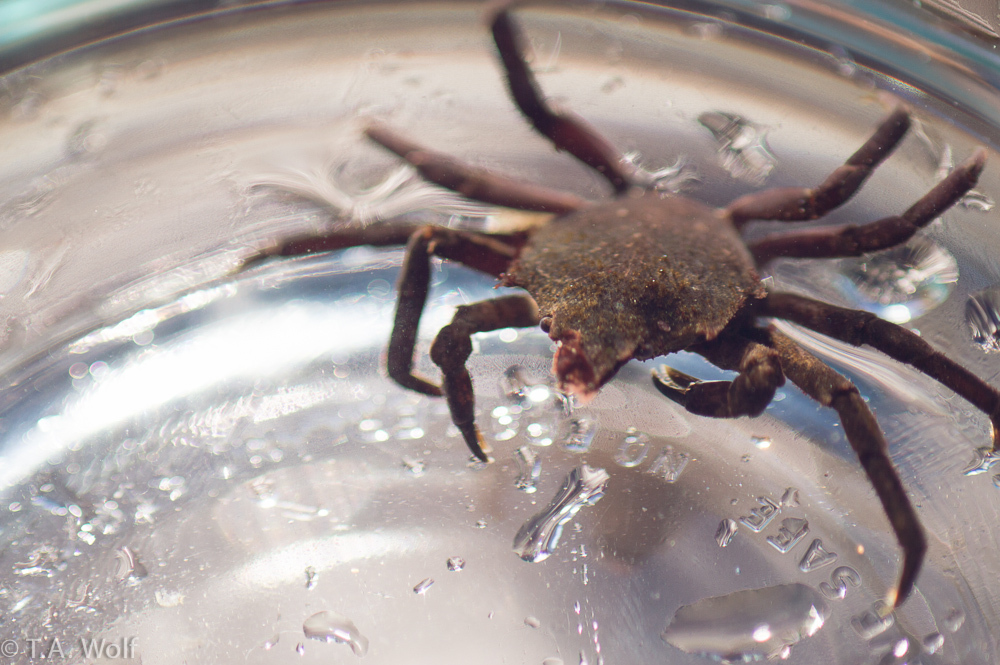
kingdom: Animalia
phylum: Arthropoda
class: Malacostraca
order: Decapoda
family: Epialtidae
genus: Pugettia
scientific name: Pugettia producta
